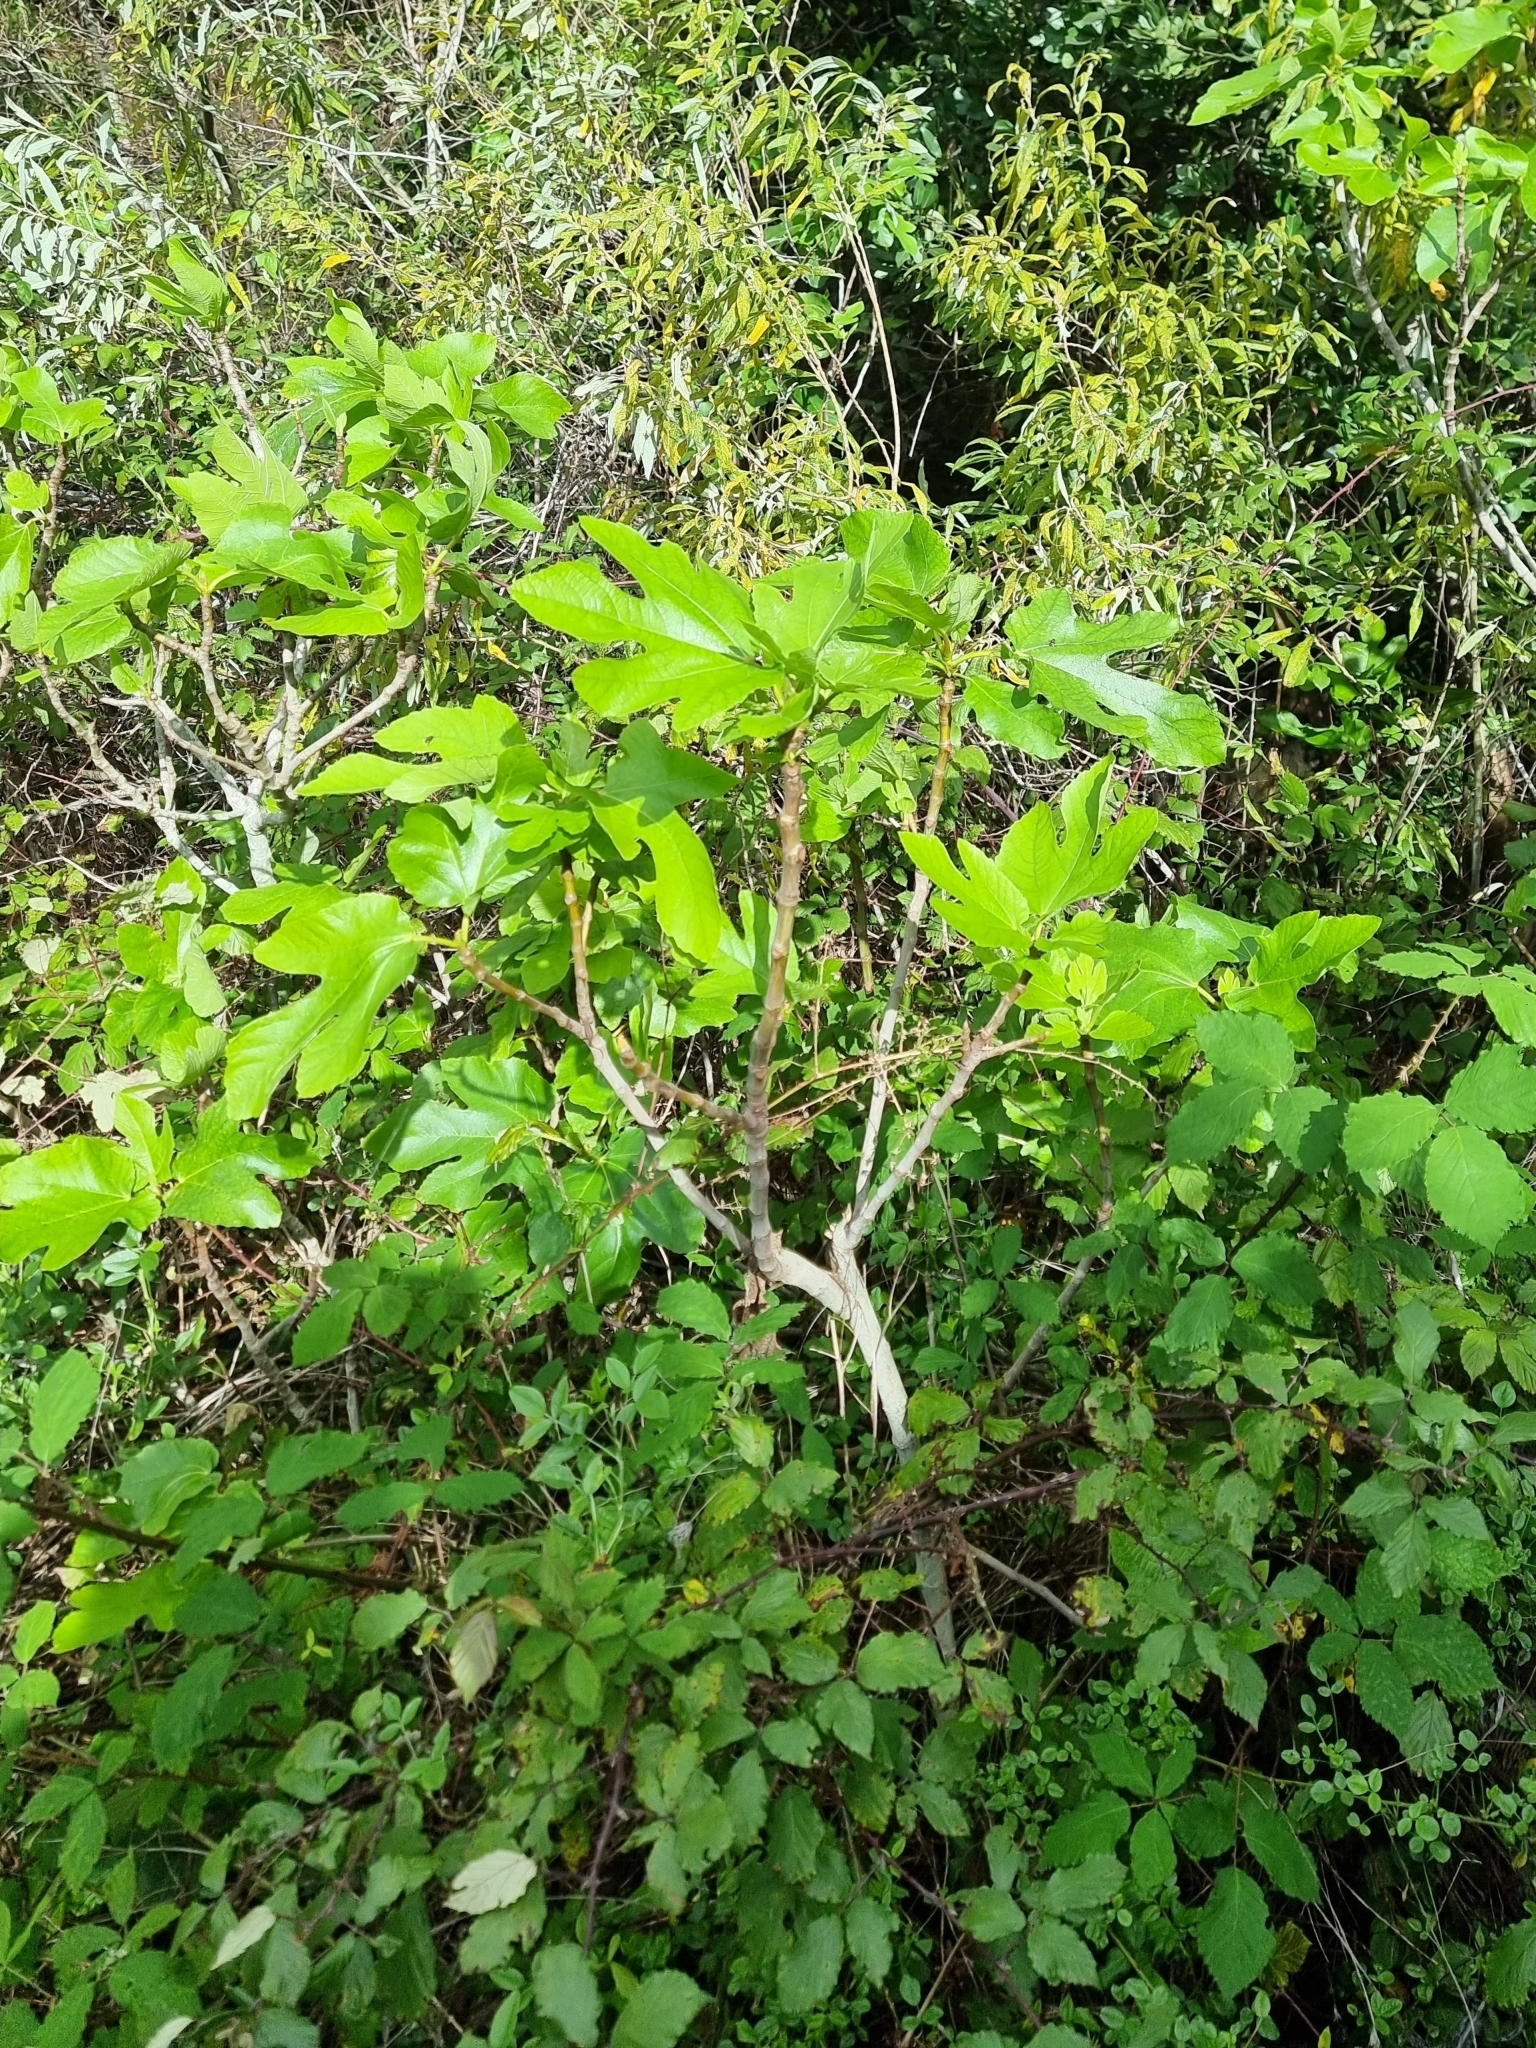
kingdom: Plantae
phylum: Tracheophyta
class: Magnoliopsida
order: Rosales
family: Moraceae
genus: Ficus
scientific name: Ficus carica
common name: Fig
